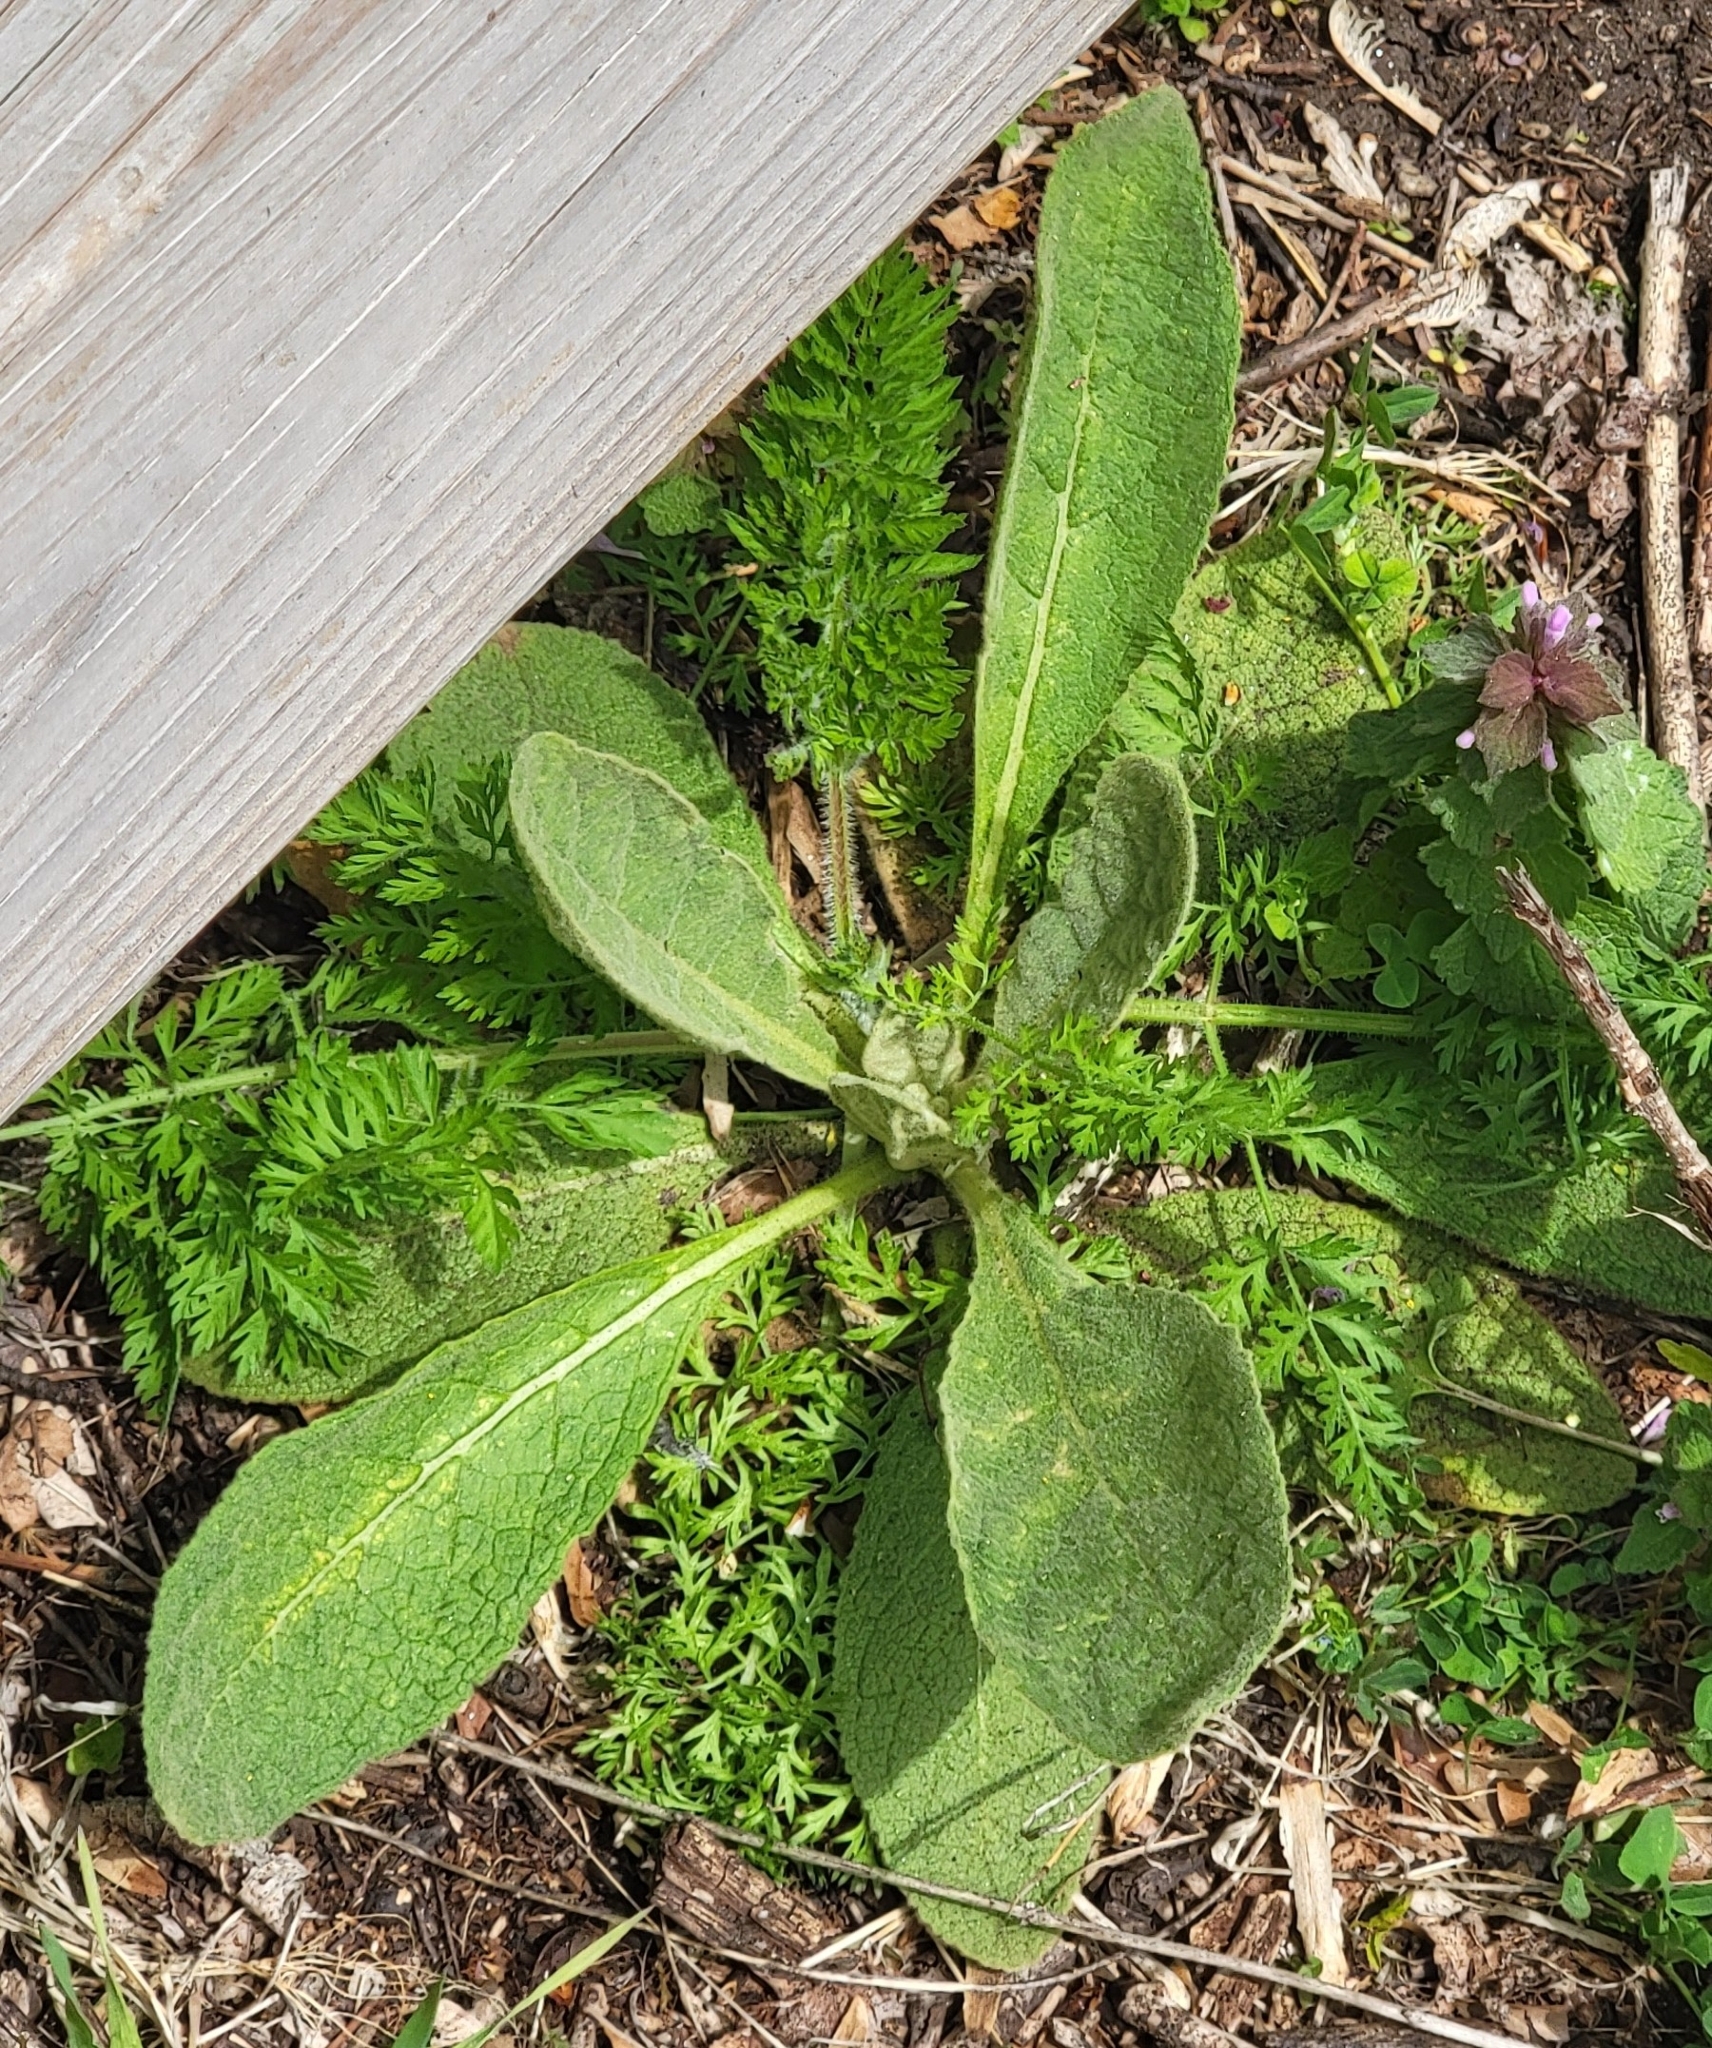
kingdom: Plantae
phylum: Tracheophyta
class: Magnoliopsida
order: Lamiales
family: Scrophulariaceae
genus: Verbascum
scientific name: Verbascum thapsus
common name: Common mullein
